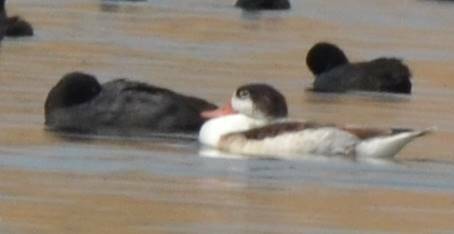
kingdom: Animalia
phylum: Chordata
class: Aves
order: Anseriformes
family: Anatidae
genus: Tadorna
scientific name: Tadorna tadorna
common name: Common shelduck
